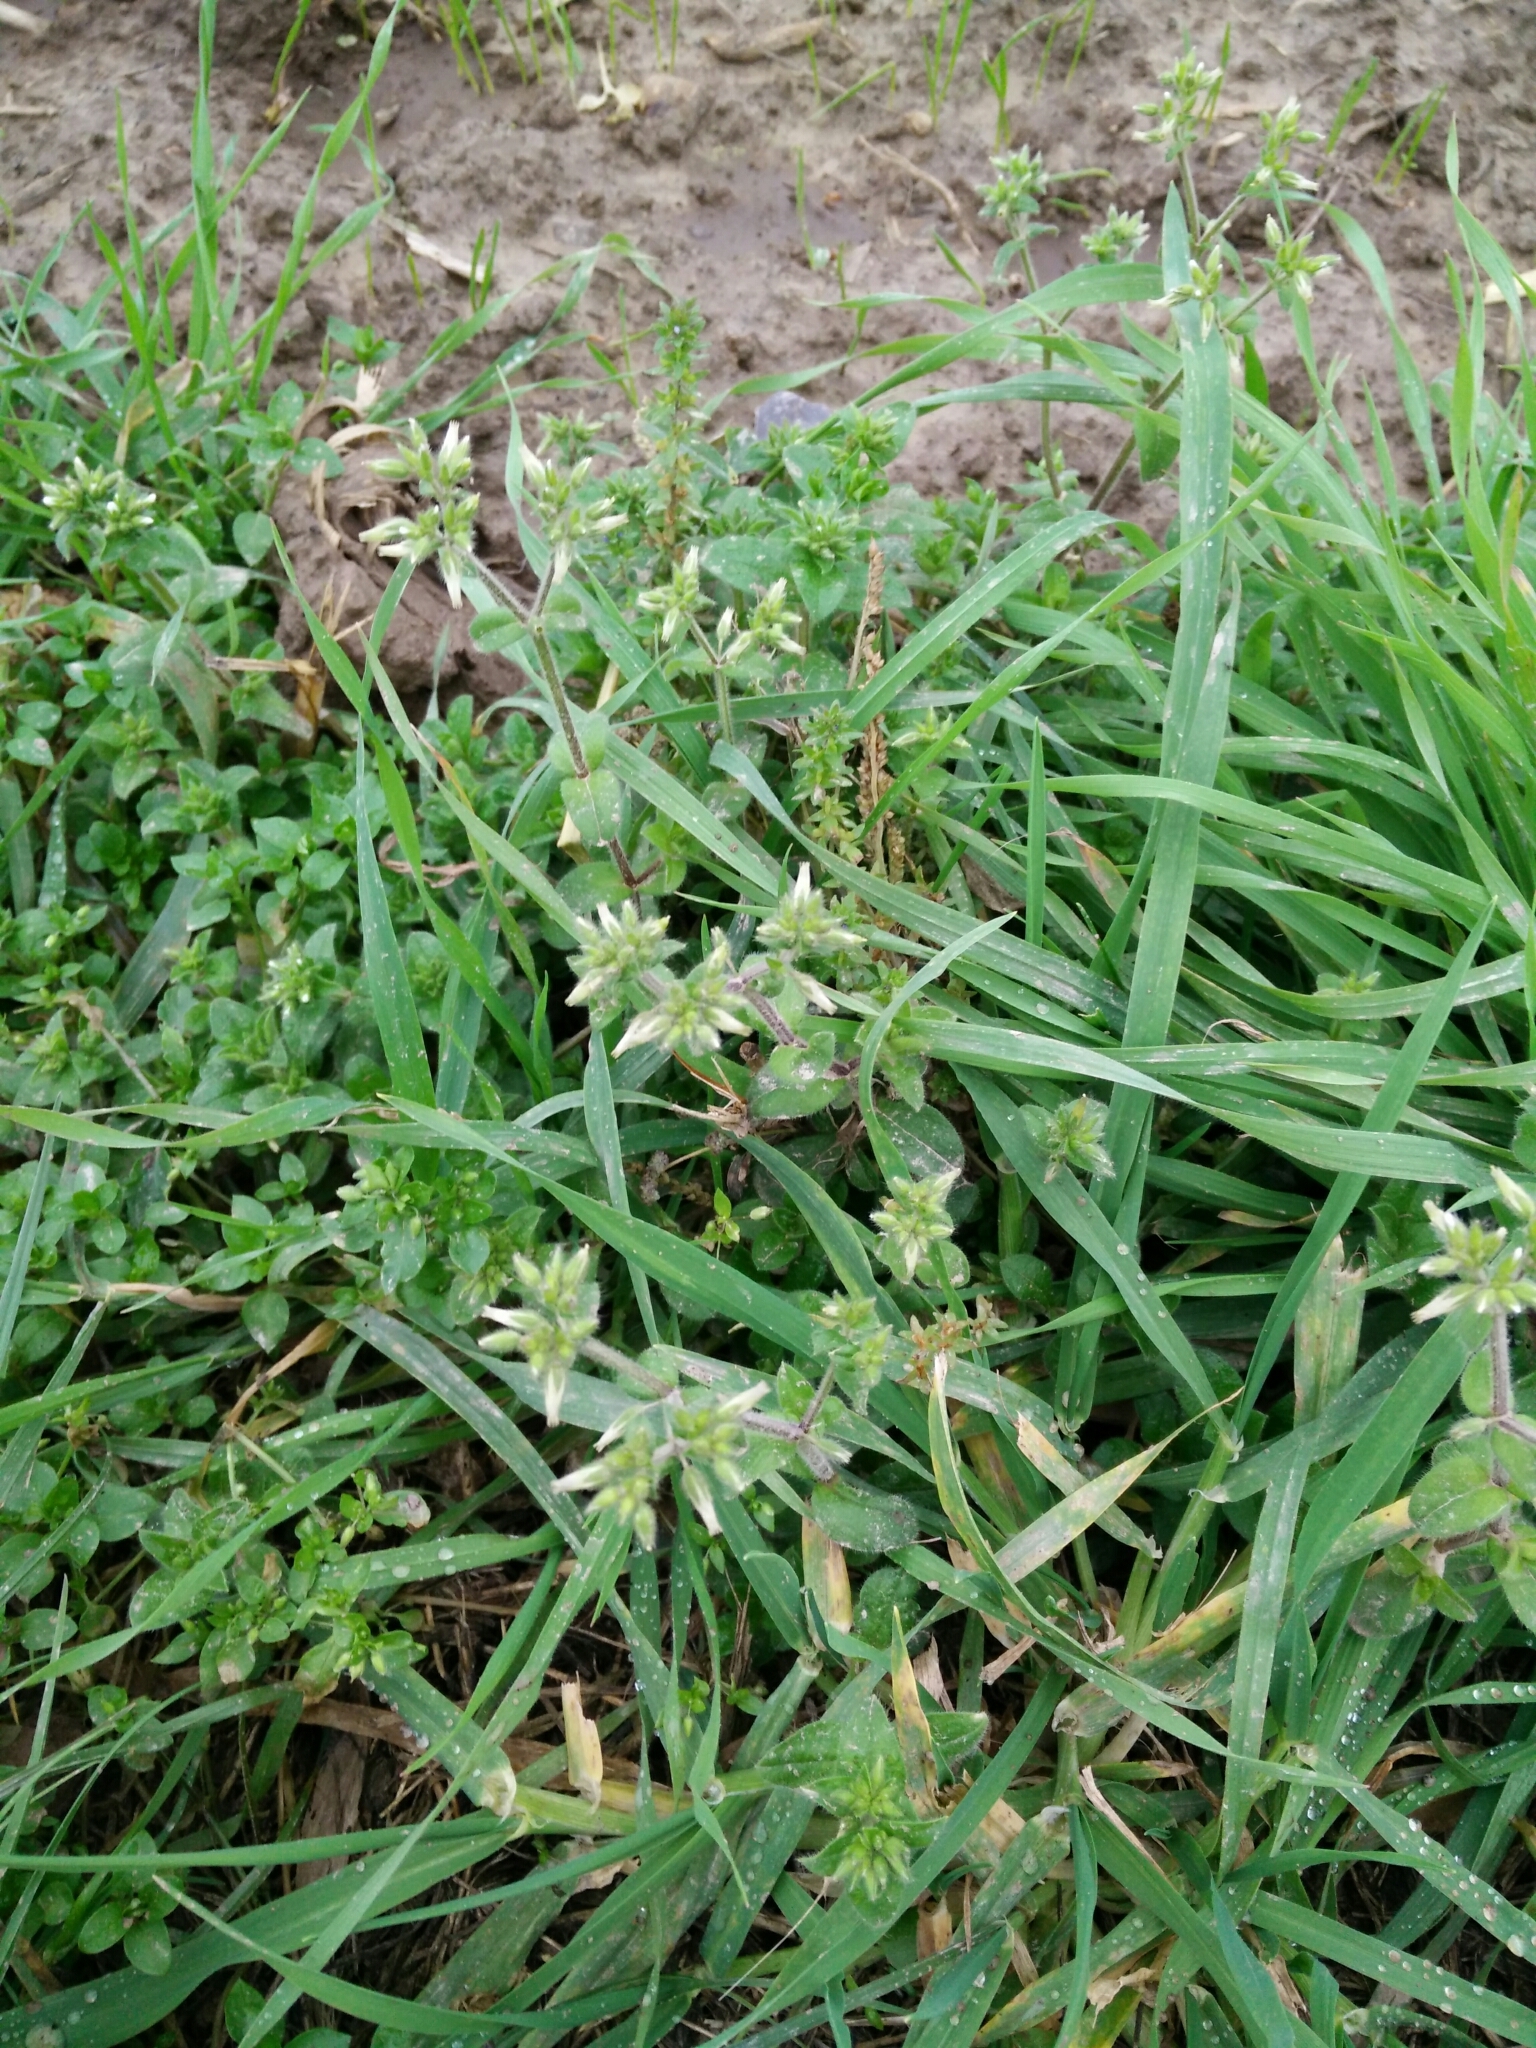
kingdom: Plantae
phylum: Tracheophyta
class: Magnoliopsida
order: Caryophyllales
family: Caryophyllaceae
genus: Cerastium
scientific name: Cerastium glomeratum
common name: Sticky chickweed
